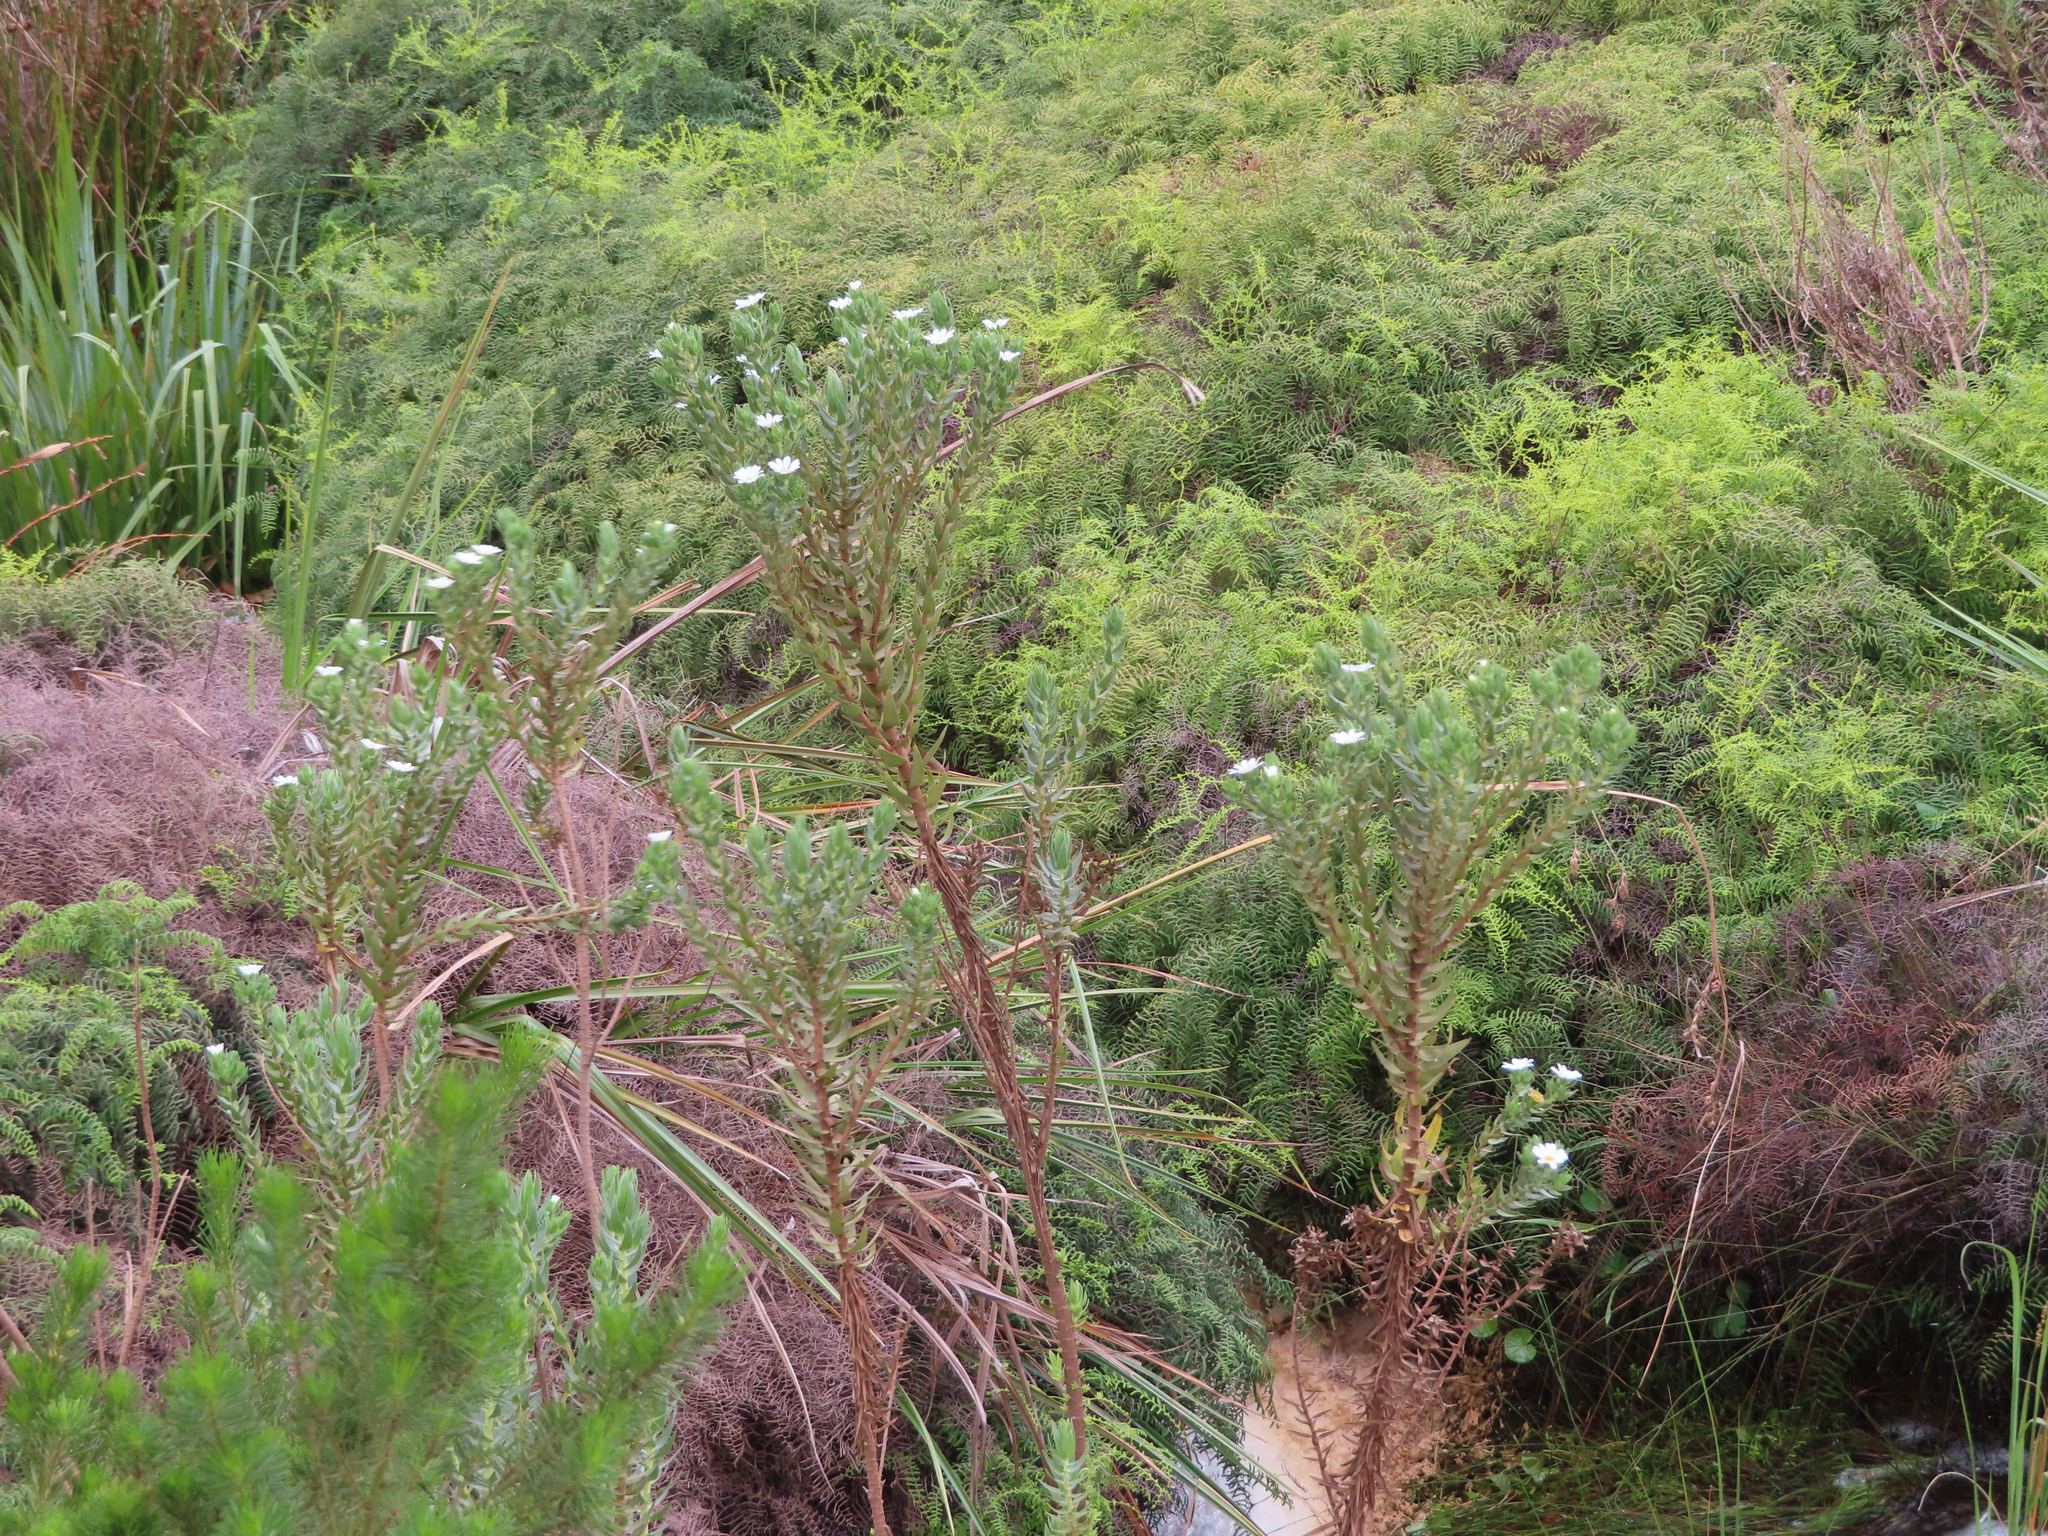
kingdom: Plantae
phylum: Tracheophyta
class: Polypodiopsida
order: Gleicheniales
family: Gleicheniaceae
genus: Gleichenia
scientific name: Gleichenia polypodioides
